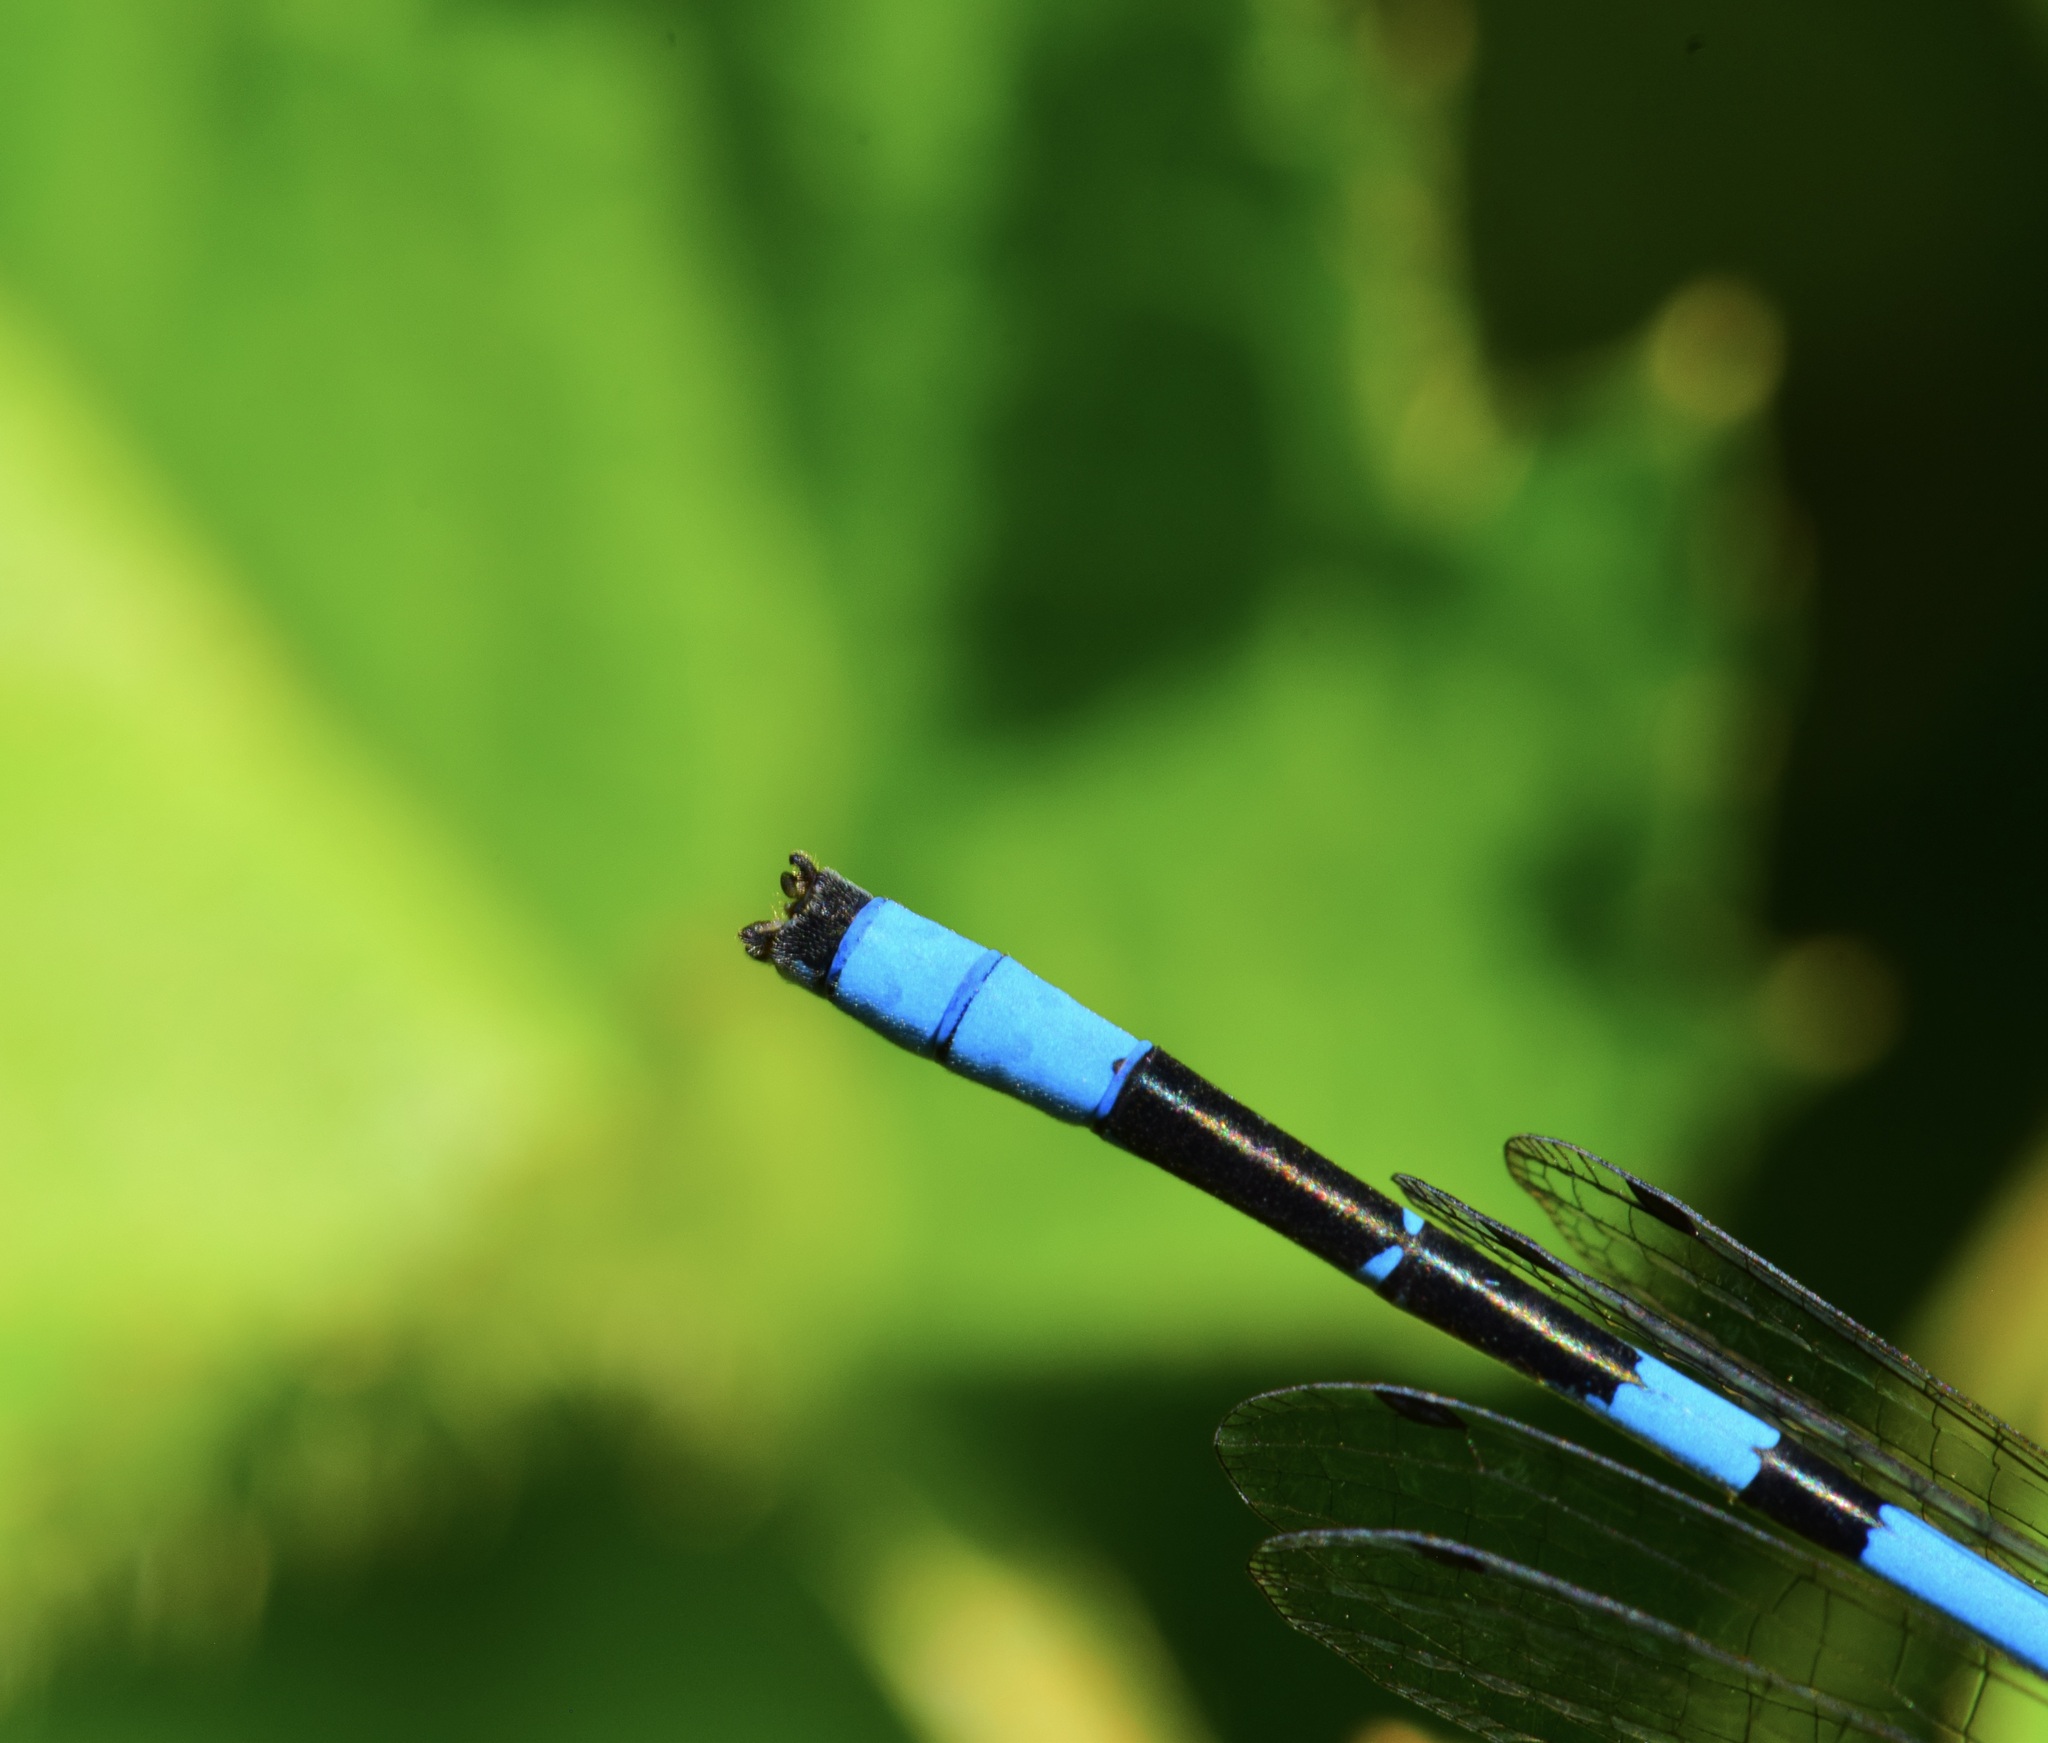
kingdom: Animalia
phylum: Arthropoda
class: Insecta
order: Odonata
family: Coenagrionidae
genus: Enallagma
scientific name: Enallagma ebrium
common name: Marsh bluet
